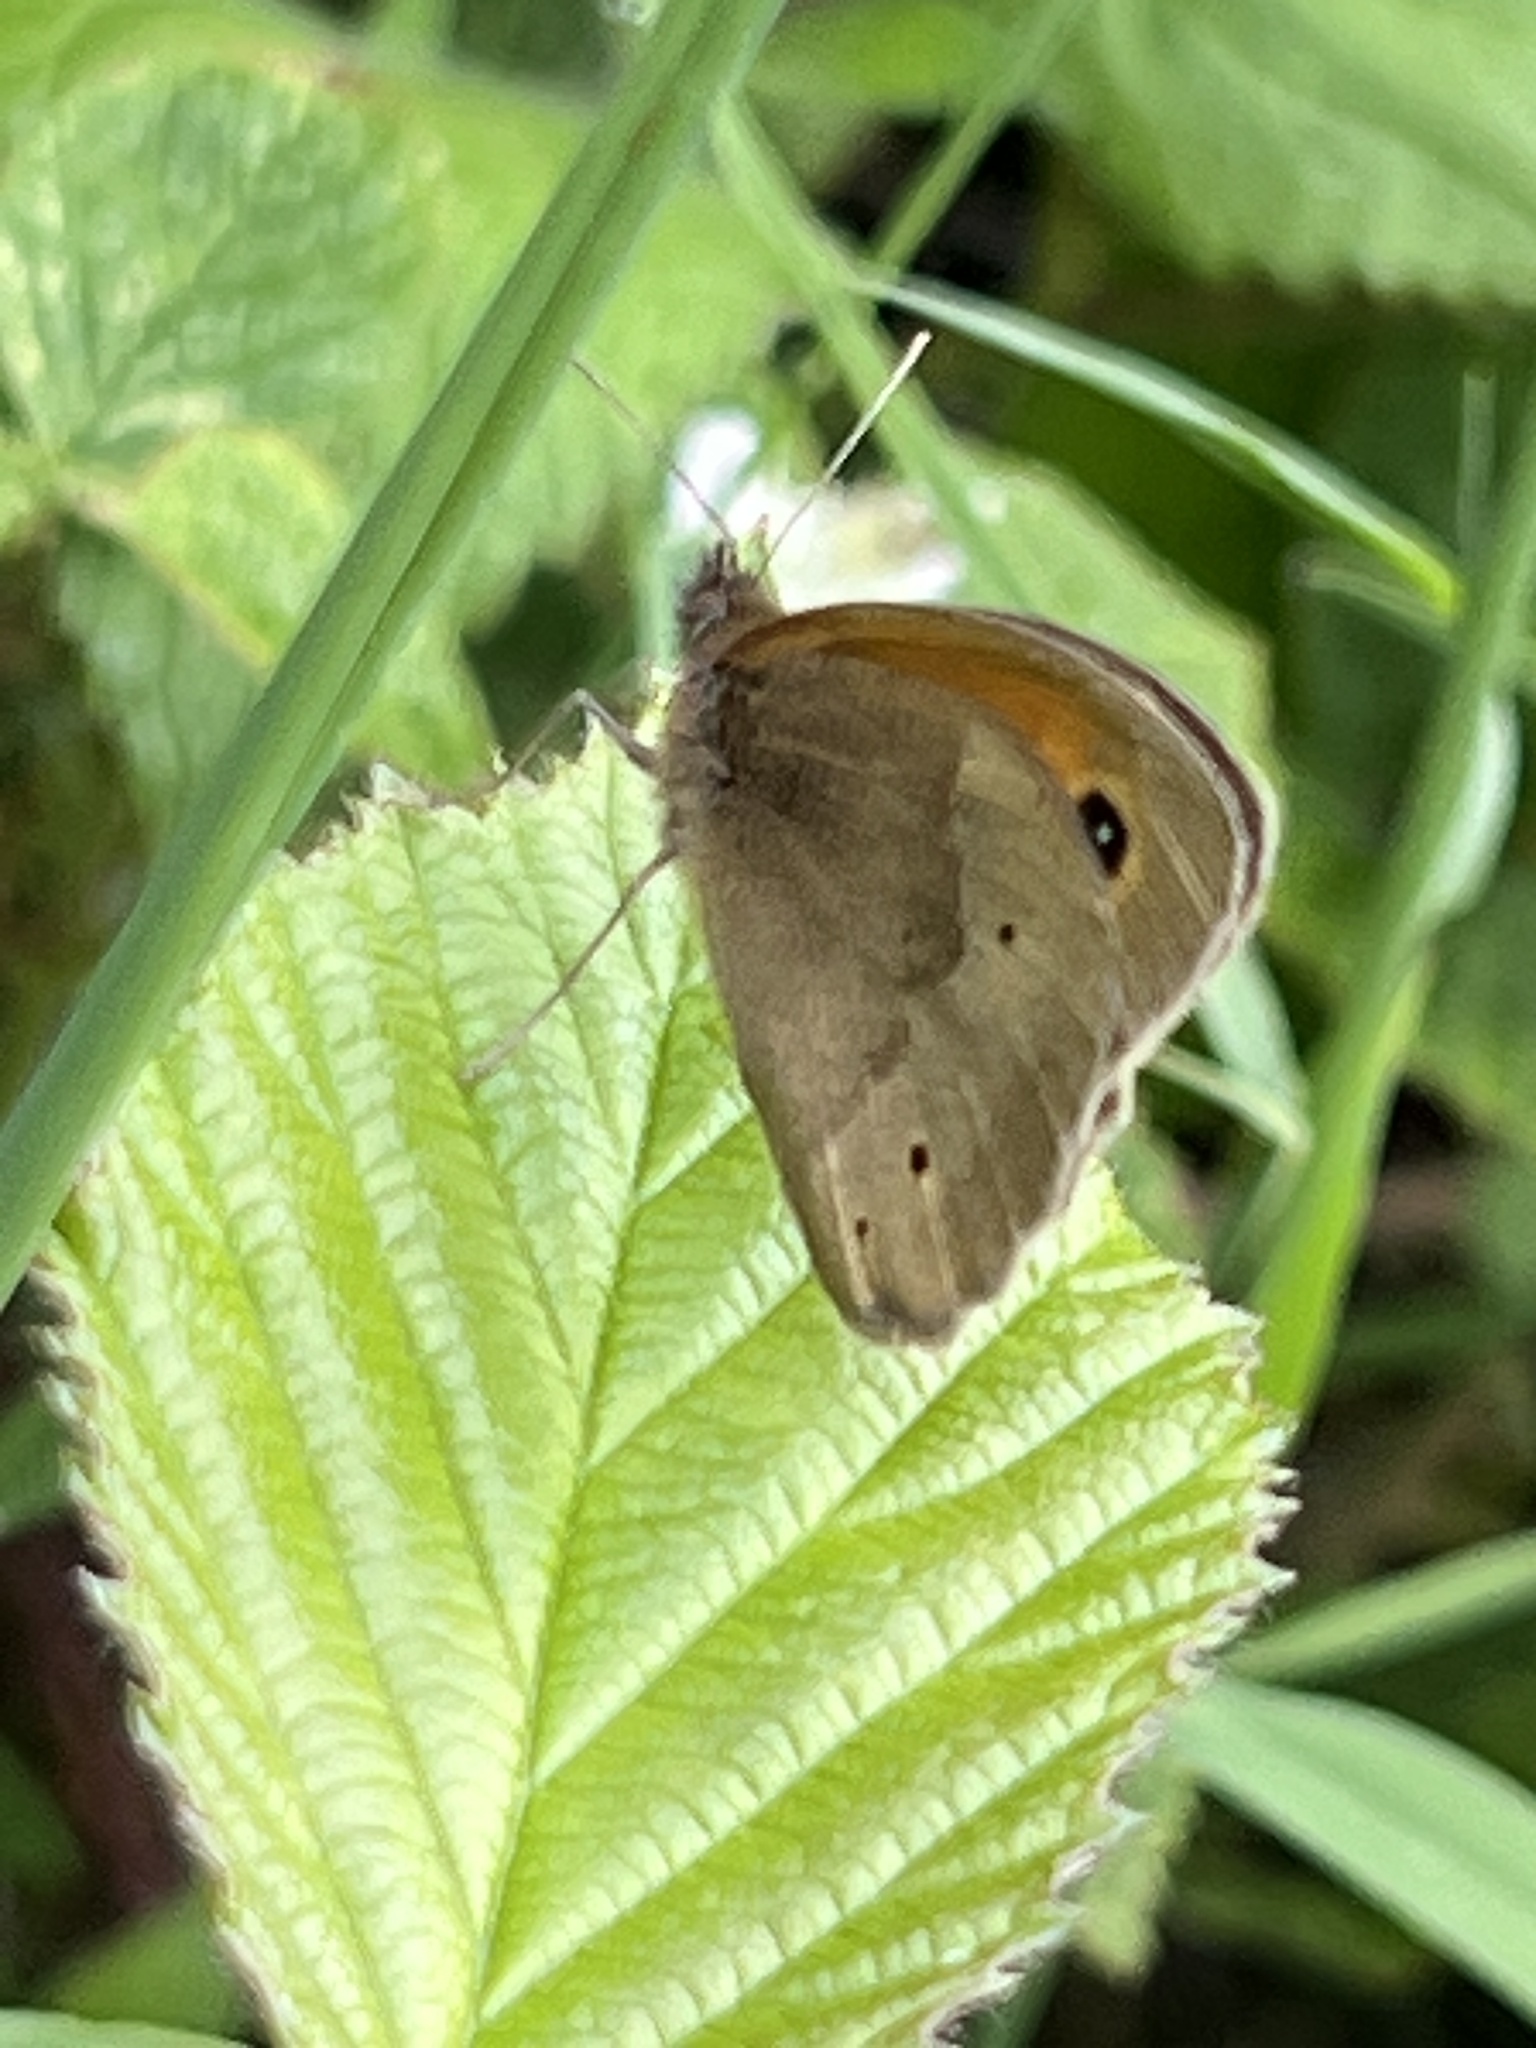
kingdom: Animalia
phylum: Arthropoda
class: Insecta
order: Lepidoptera
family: Nymphalidae
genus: Maniola
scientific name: Maniola jurtina
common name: Meadow brown
